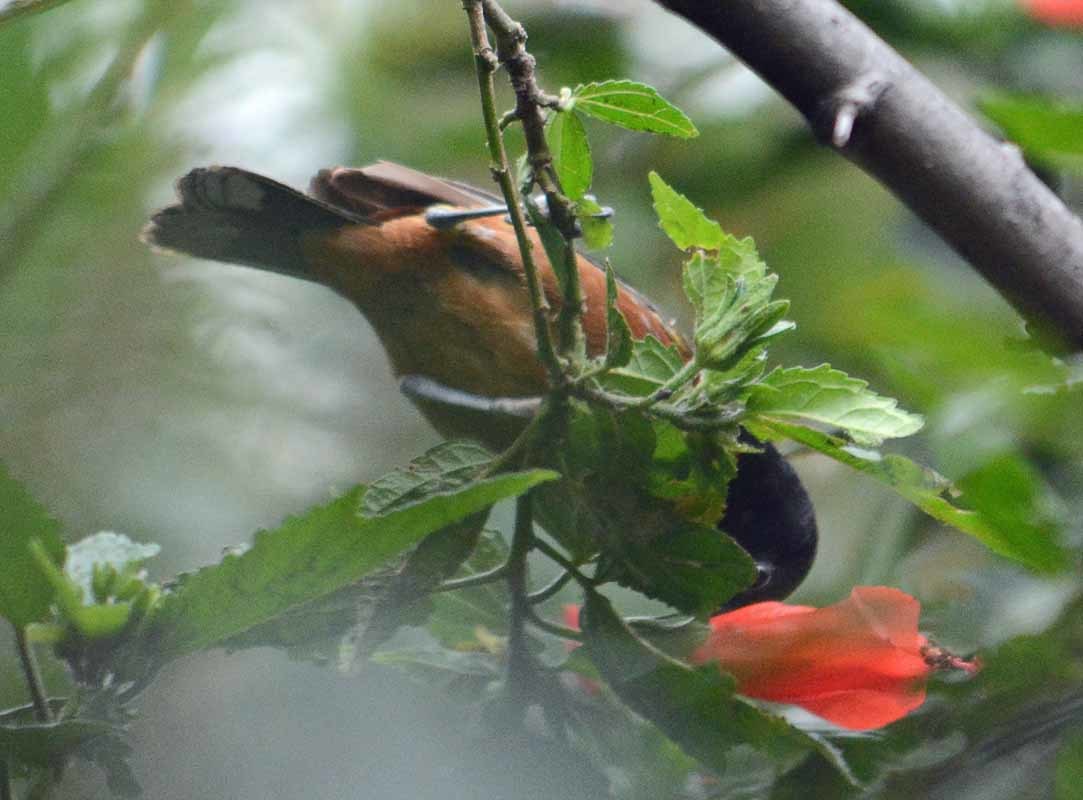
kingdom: Animalia
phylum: Chordata
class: Aves
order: Passeriformes
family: Thraupidae
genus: Diglossa
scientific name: Diglossa baritula
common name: Cinnamon-bellied flowerpiercer
